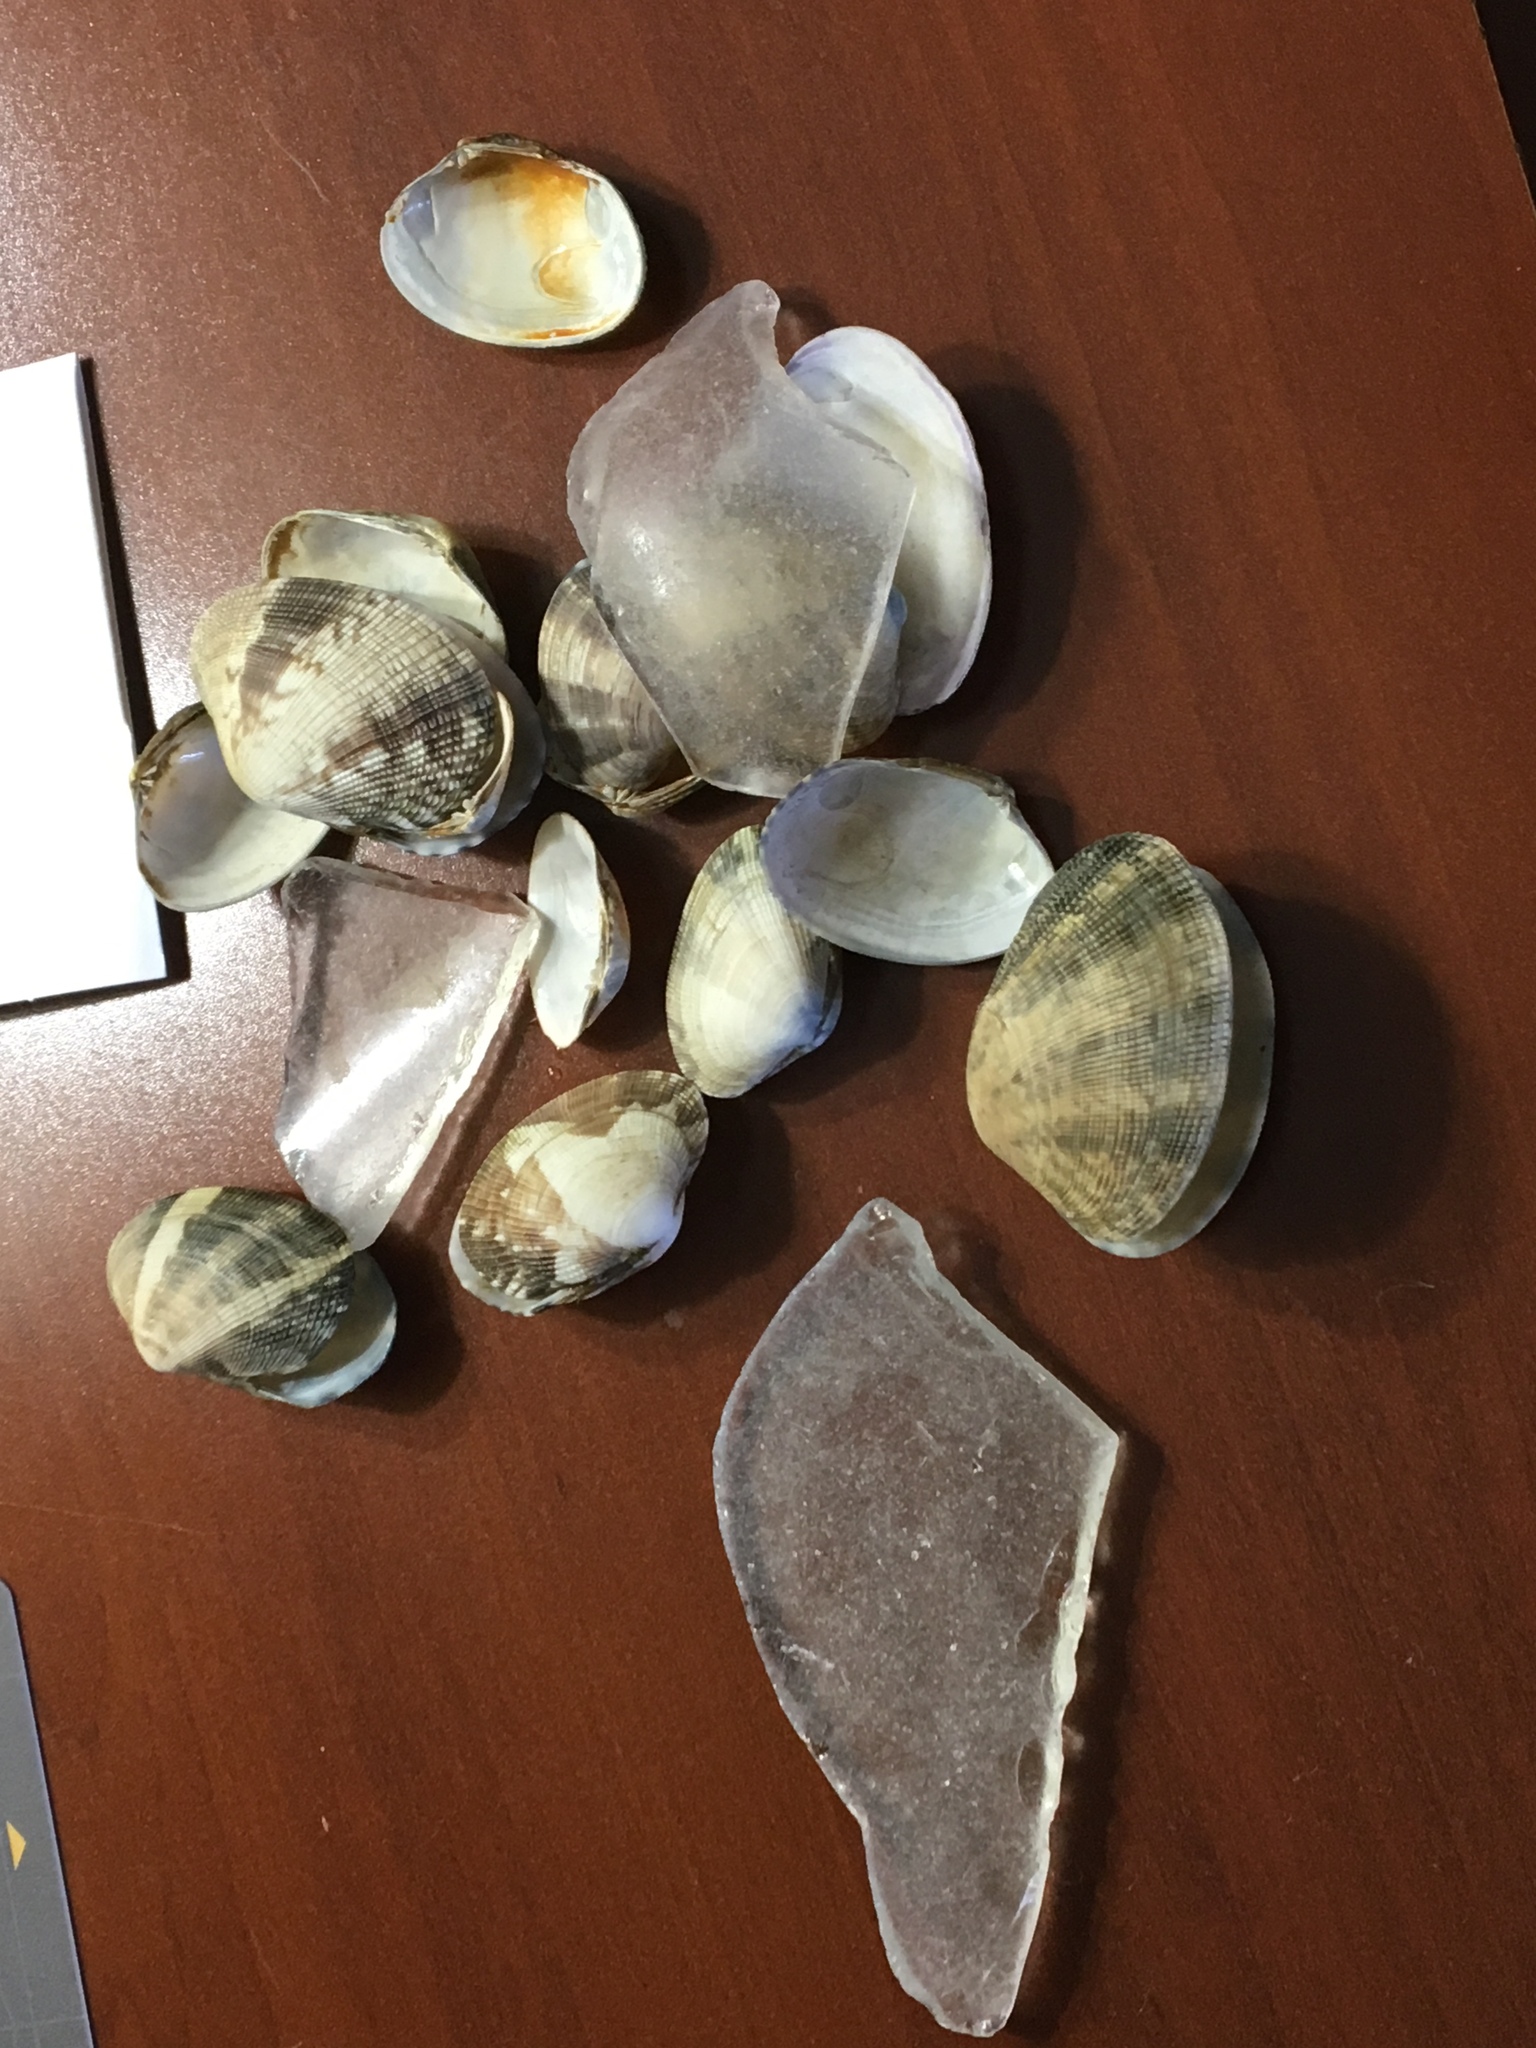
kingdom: Animalia
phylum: Mollusca
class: Bivalvia
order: Venerida
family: Veneridae
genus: Ruditapes
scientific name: Ruditapes philippinarum
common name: Manila clam
